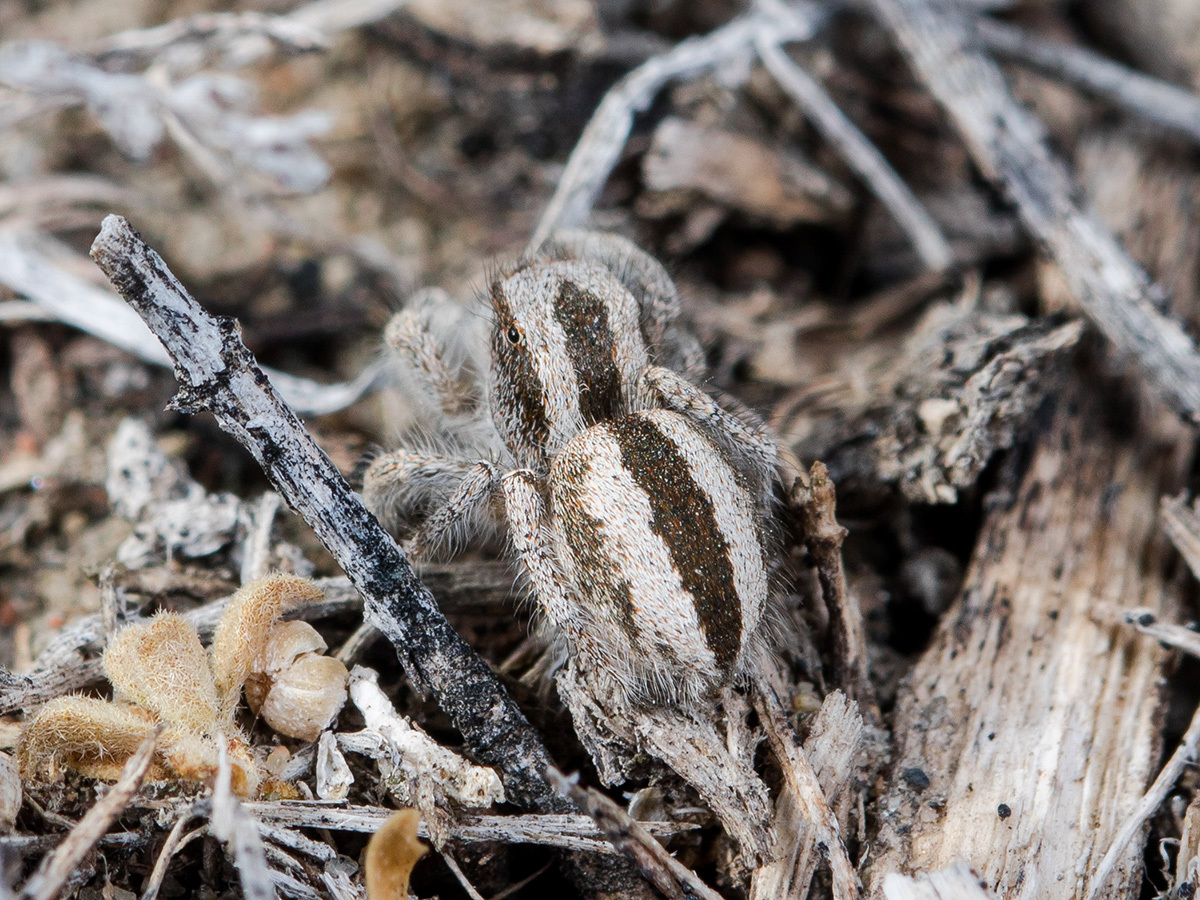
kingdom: Animalia
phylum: Arthropoda
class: Arachnida
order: Araneae
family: Salticidae
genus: Pseudomogrus
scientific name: Pseudomogrus validus
